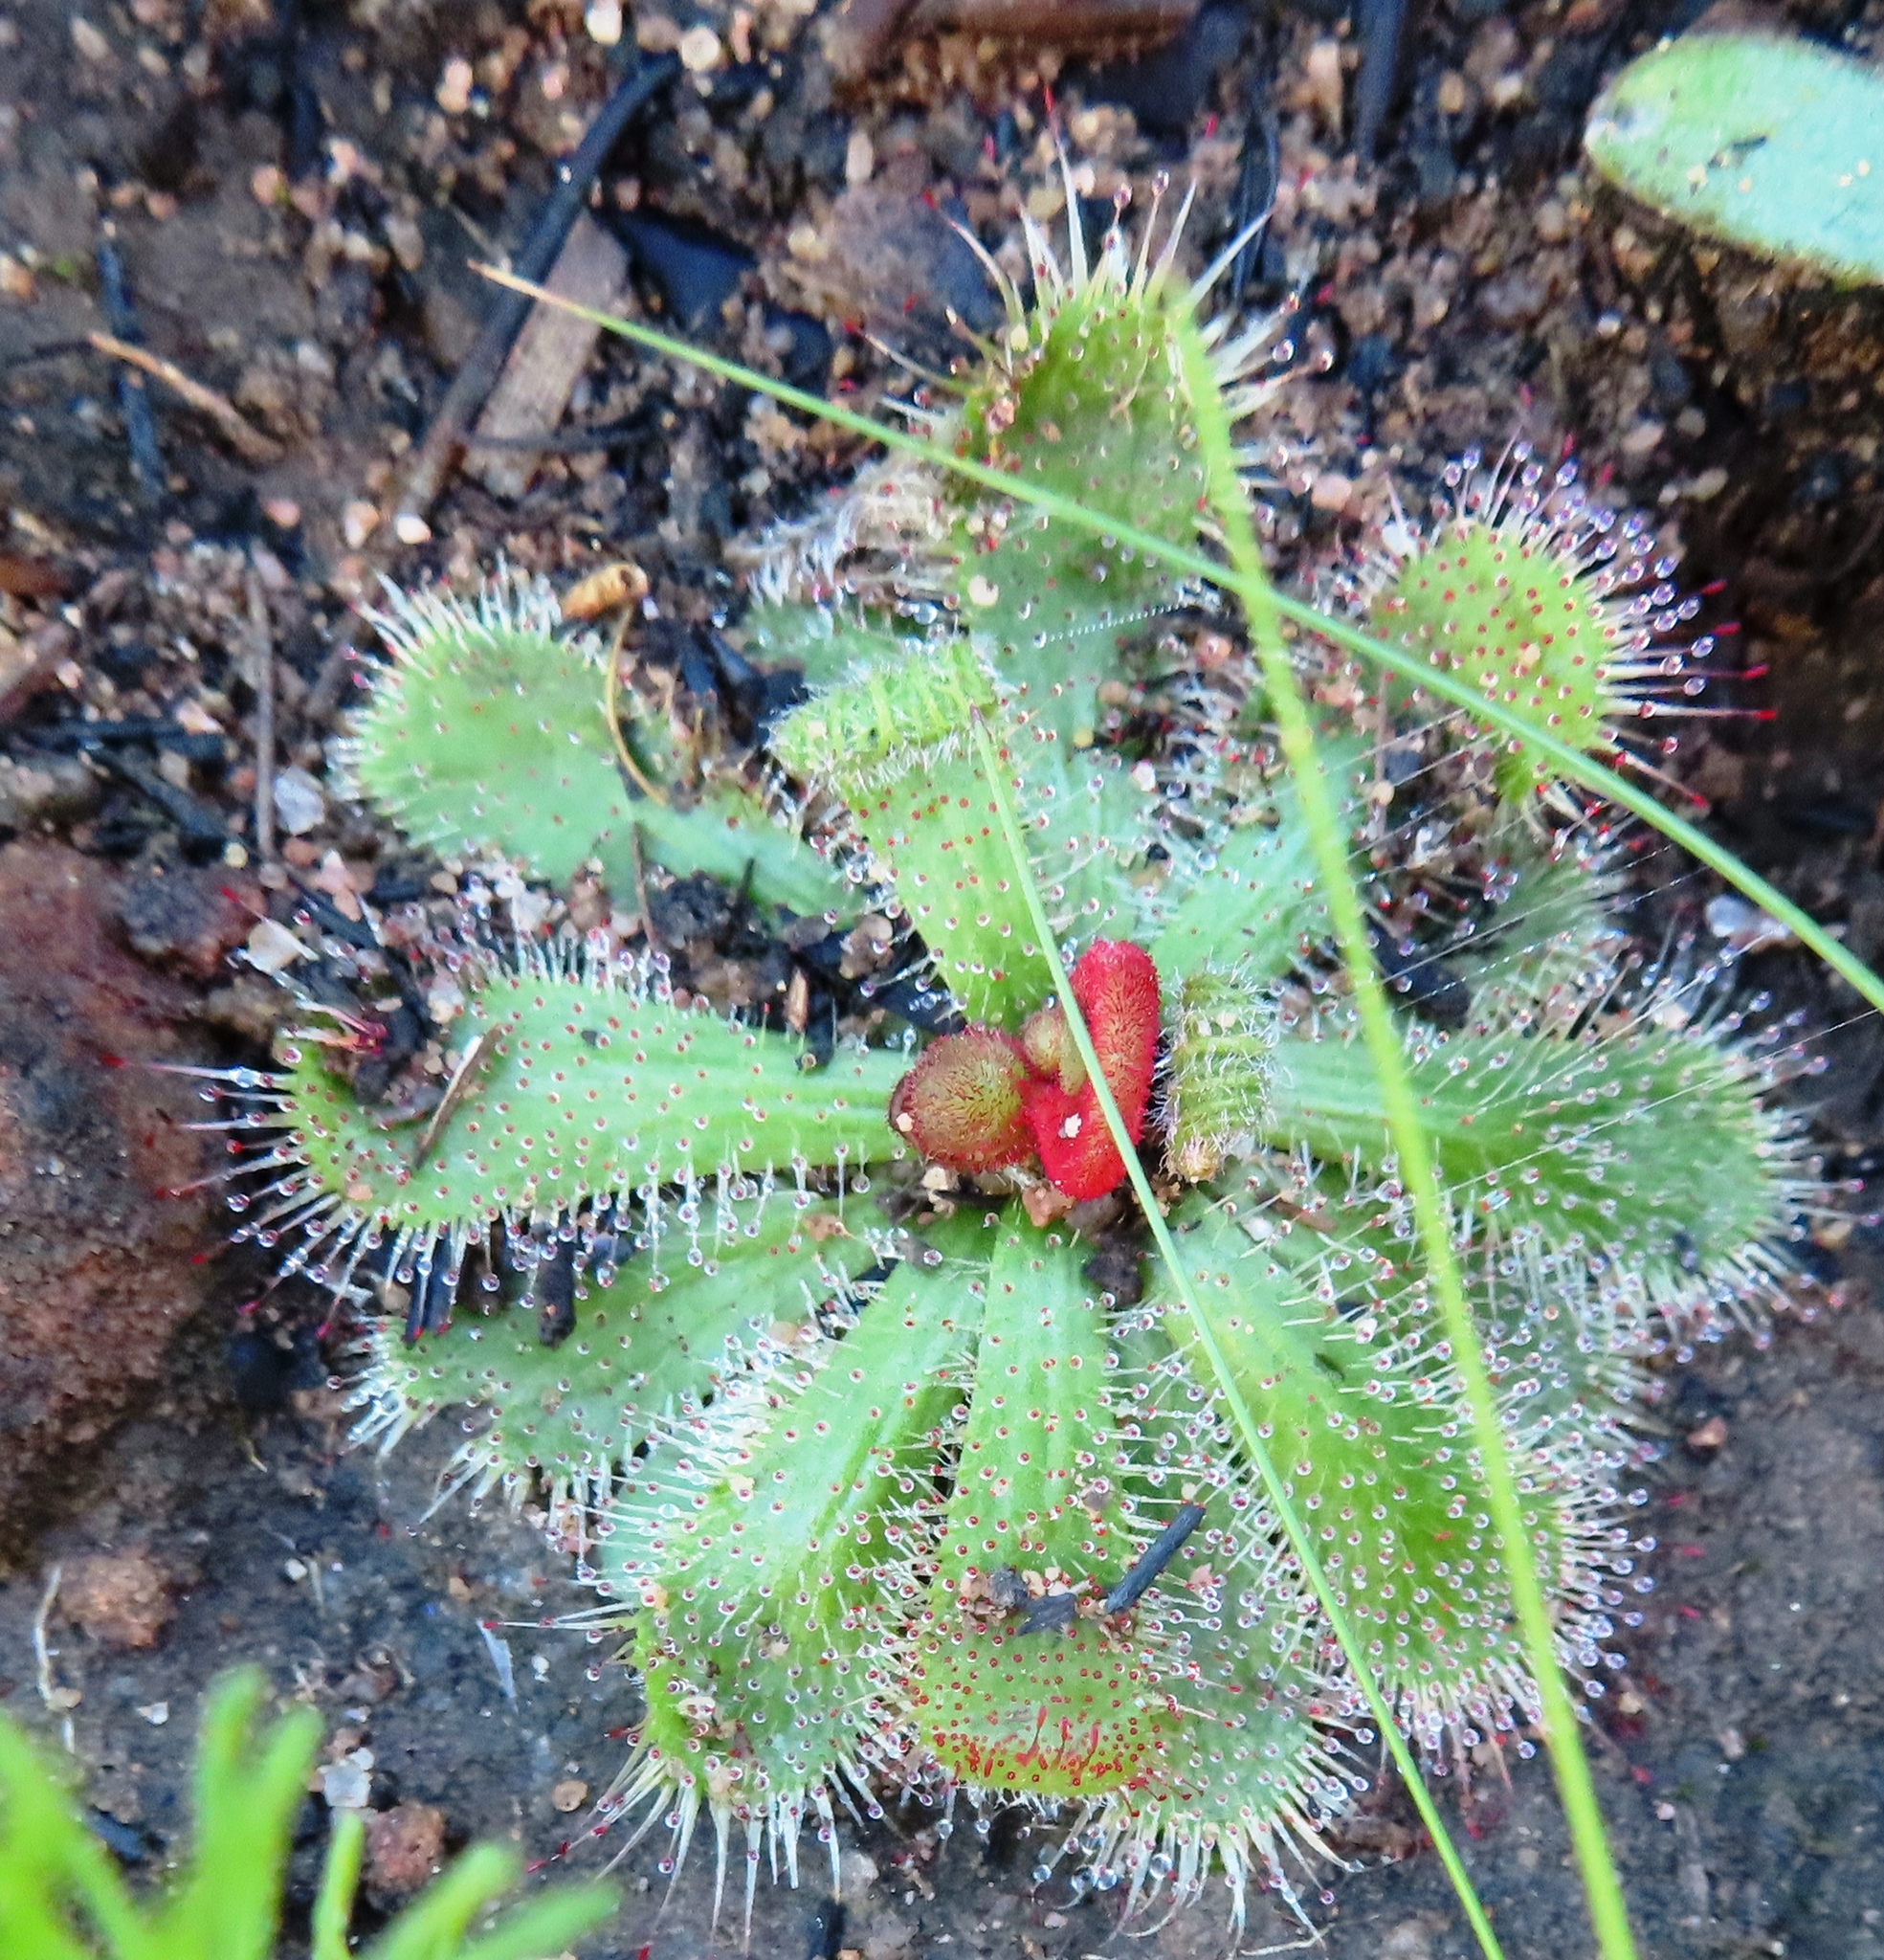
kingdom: Plantae
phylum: Tracheophyta
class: Magnoliopsida
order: Caryophyllales
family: Droseraceae
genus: Drosera
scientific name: Drosera pauciflora
